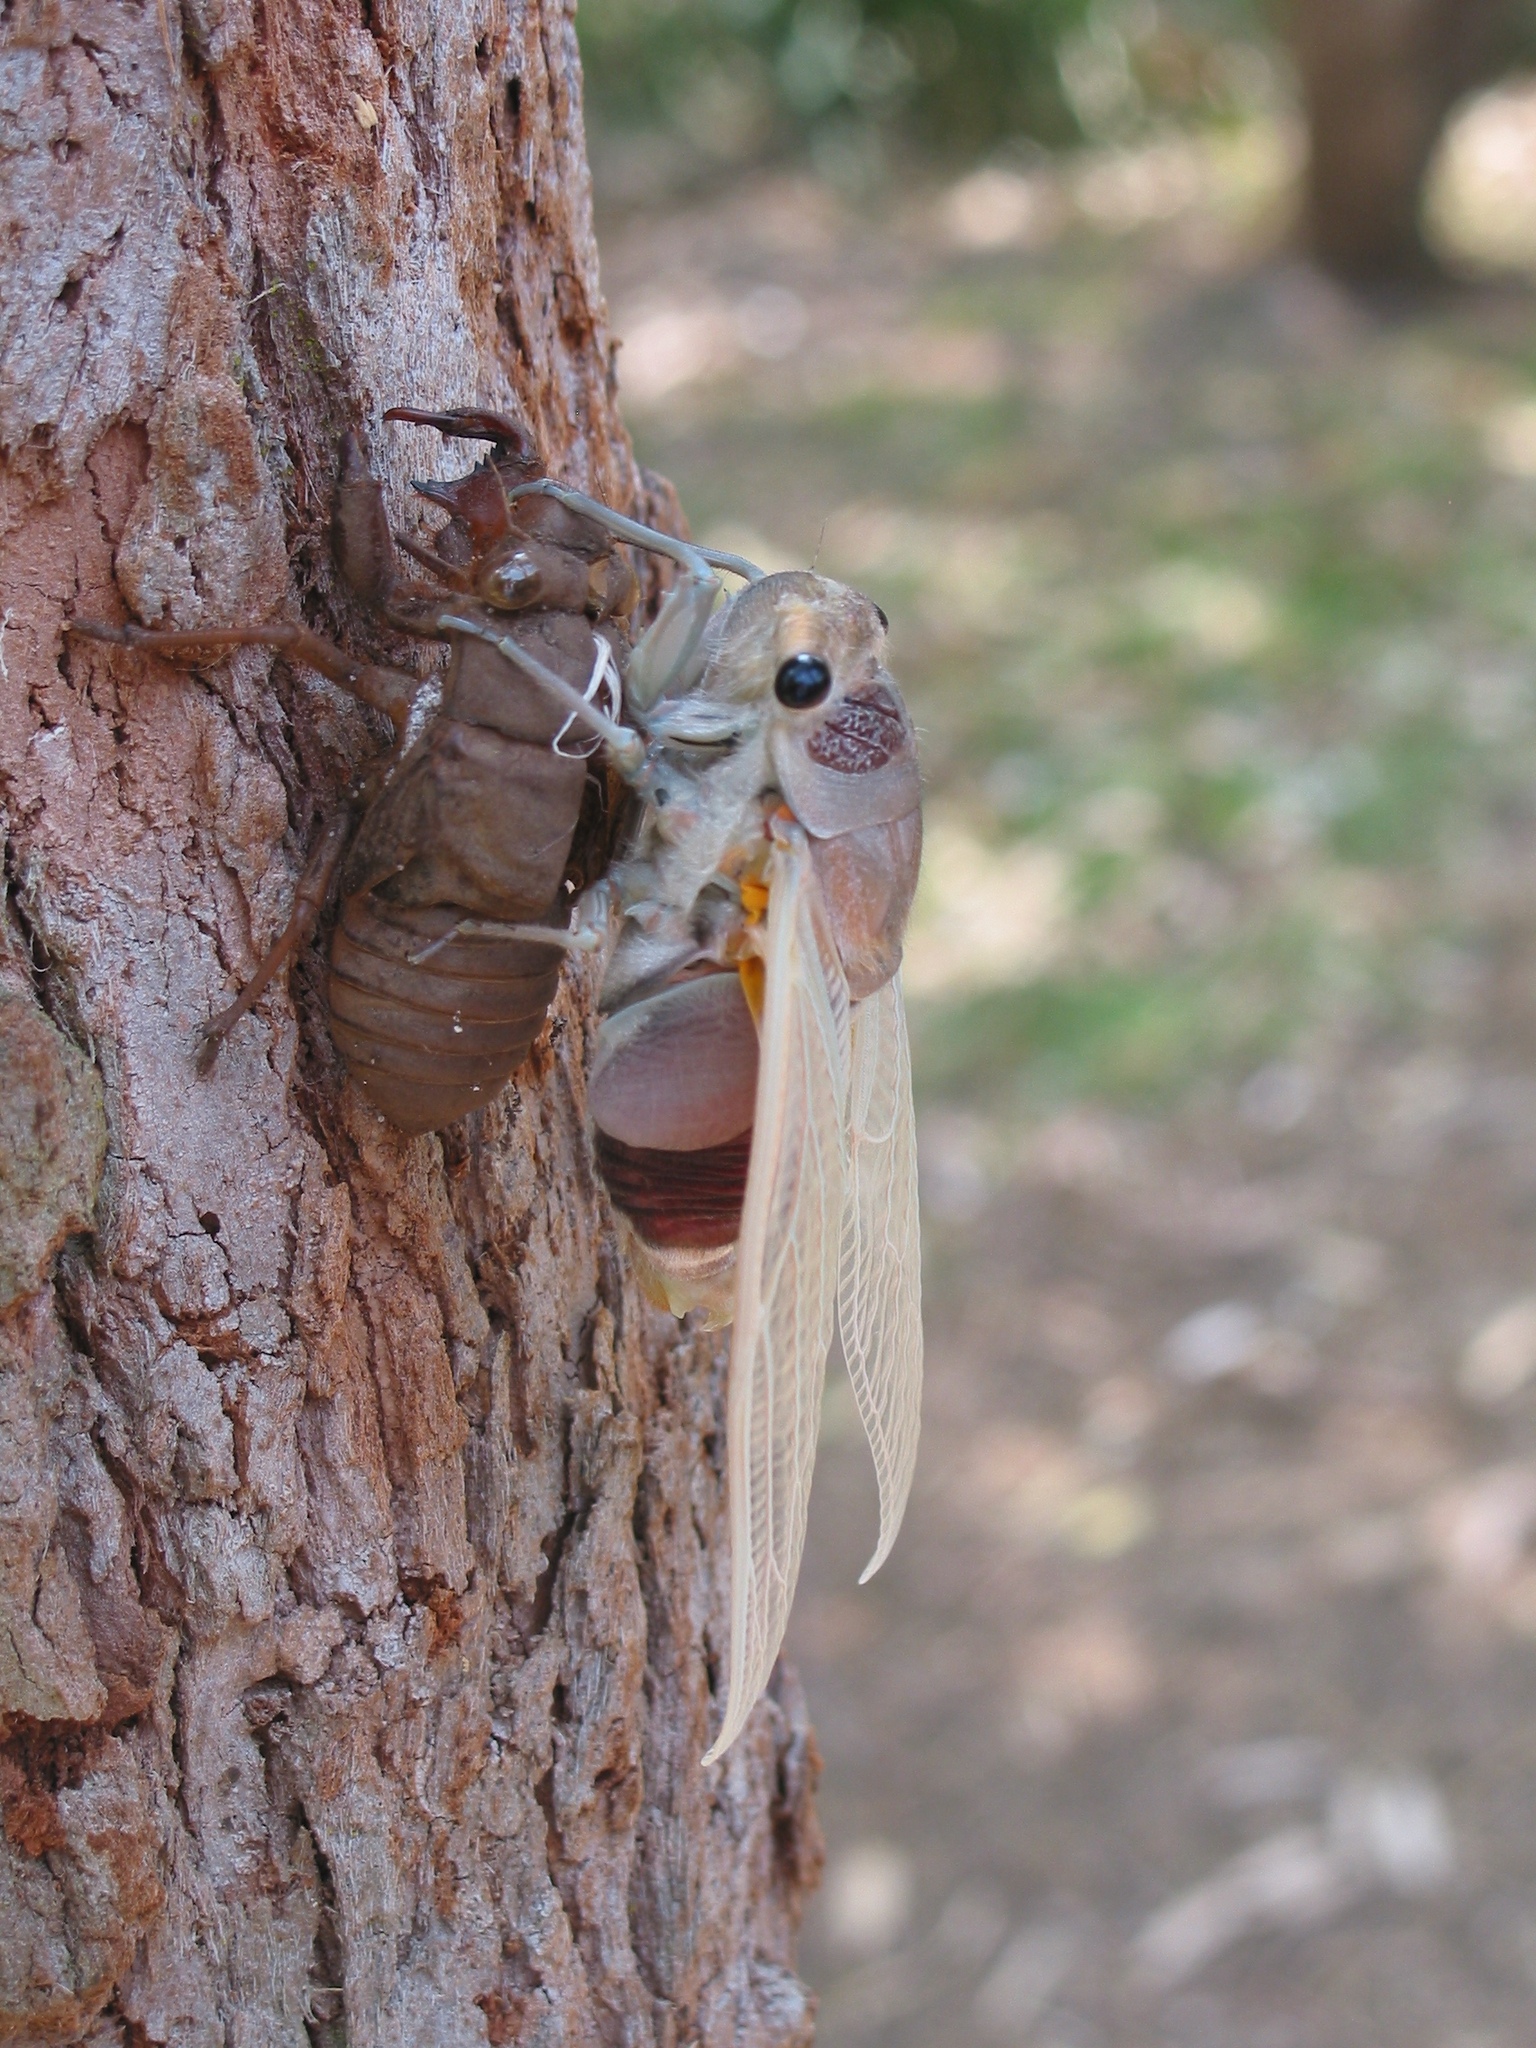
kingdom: Animalia
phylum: Arthropoda
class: Insecta
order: Hemiptera
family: Cicadidae
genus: Thopha
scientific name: Thopha saccata
